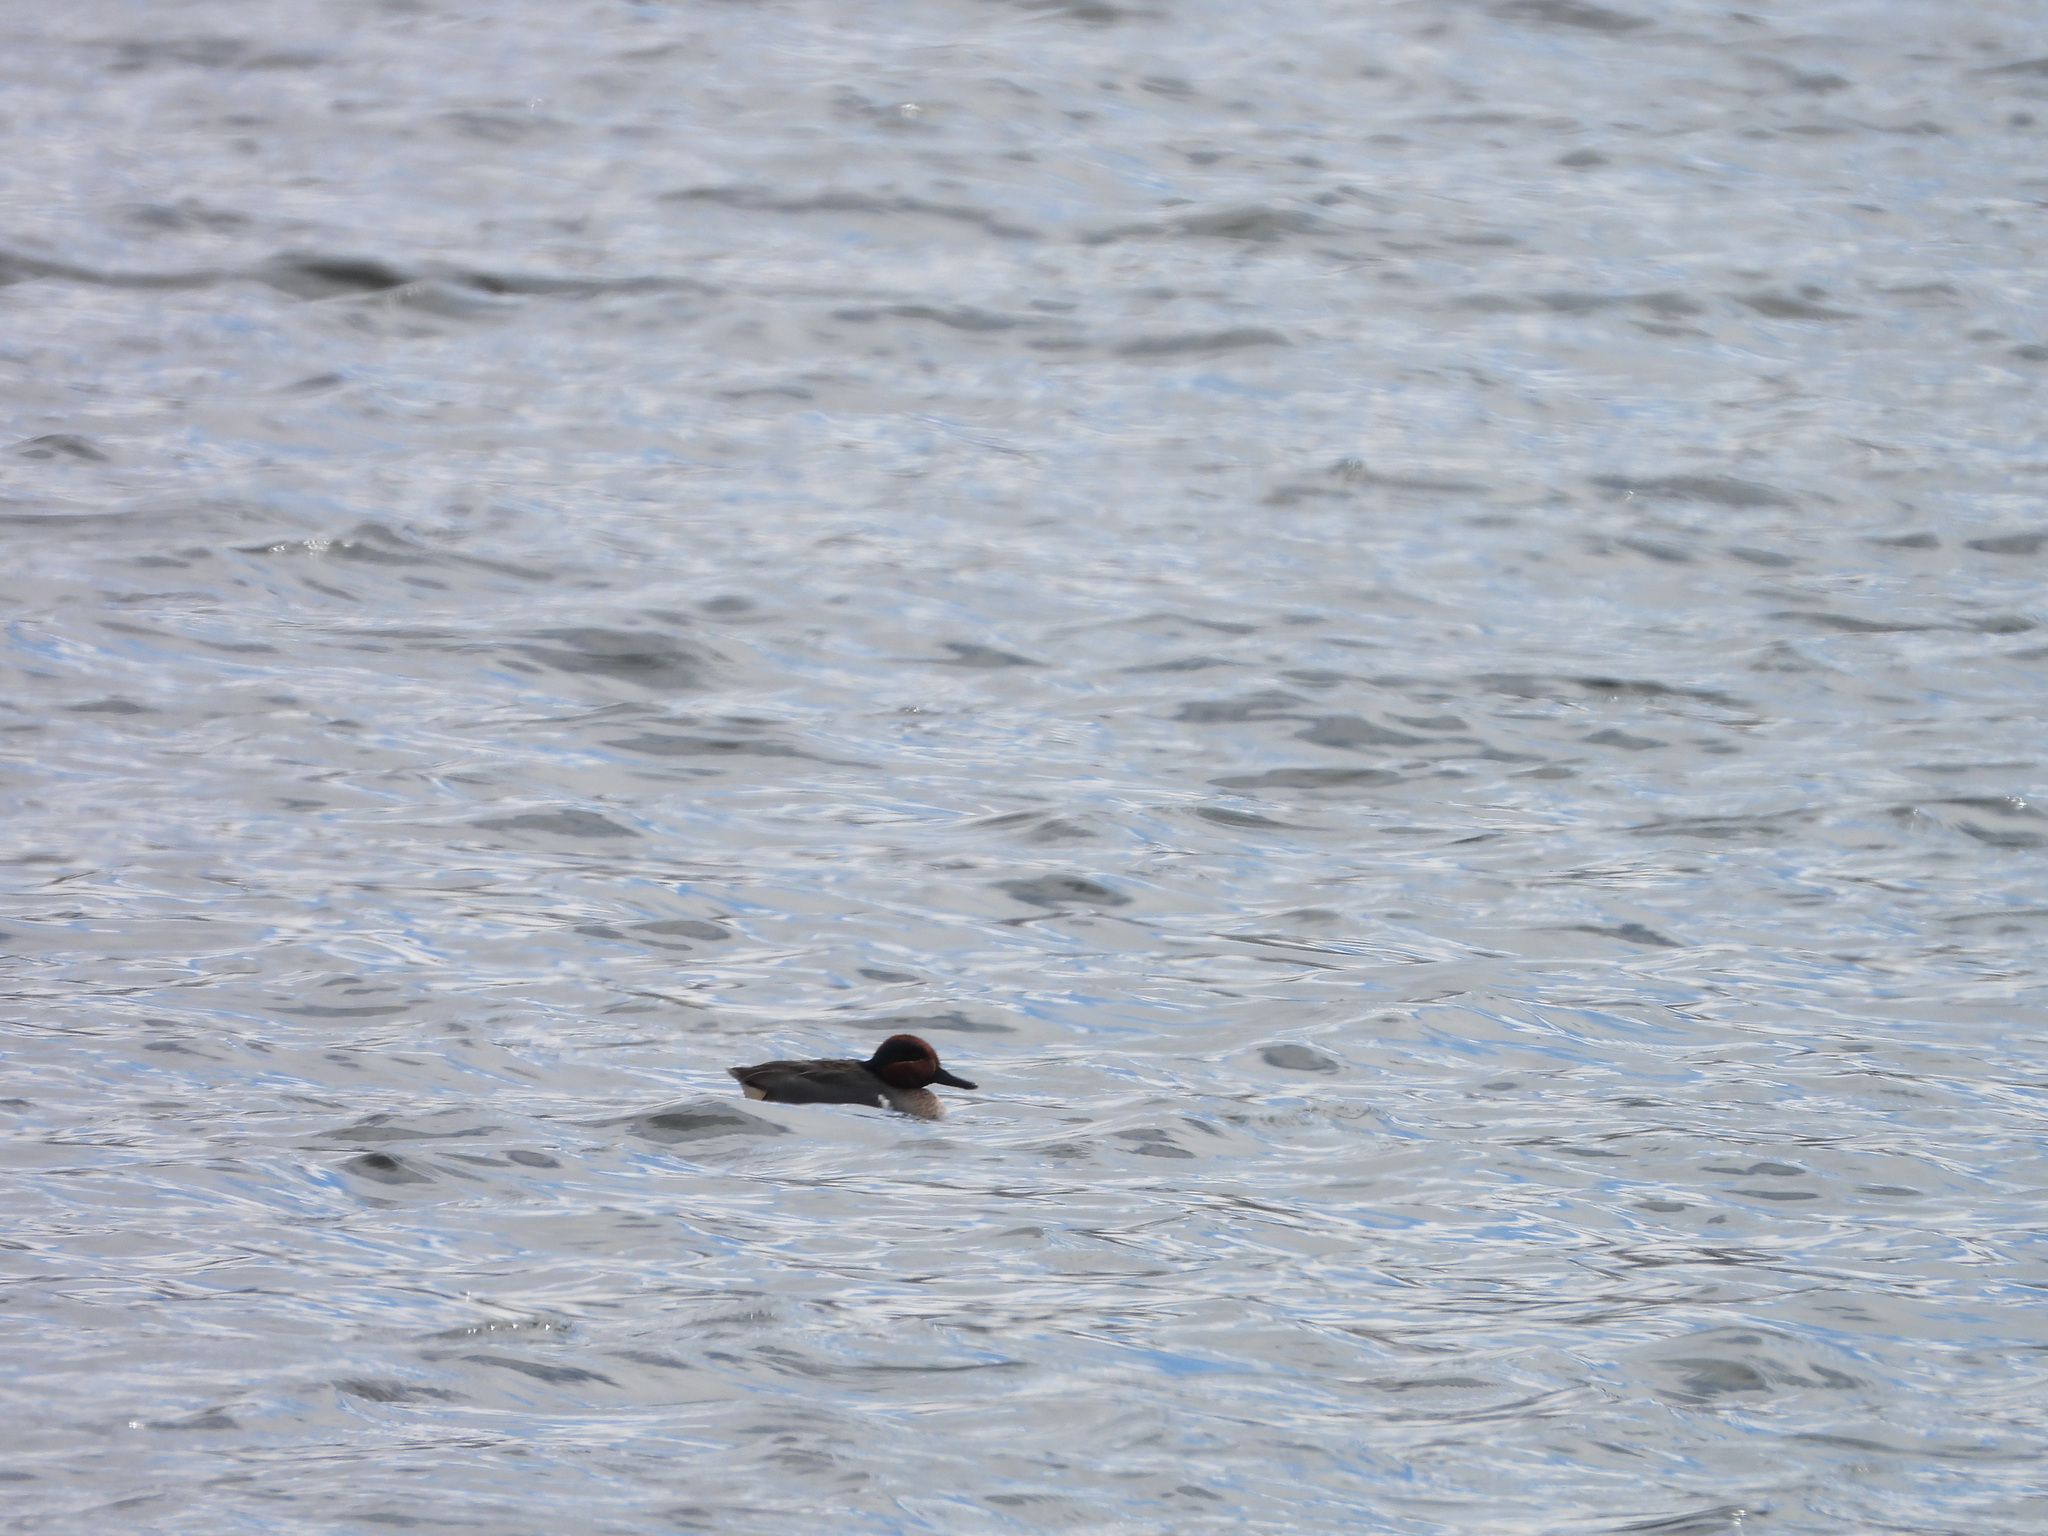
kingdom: Animalia
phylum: Chordata
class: Aves
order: Anseriformes
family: Anatidae
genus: Anas
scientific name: Anas crecca
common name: Eurasian teal
